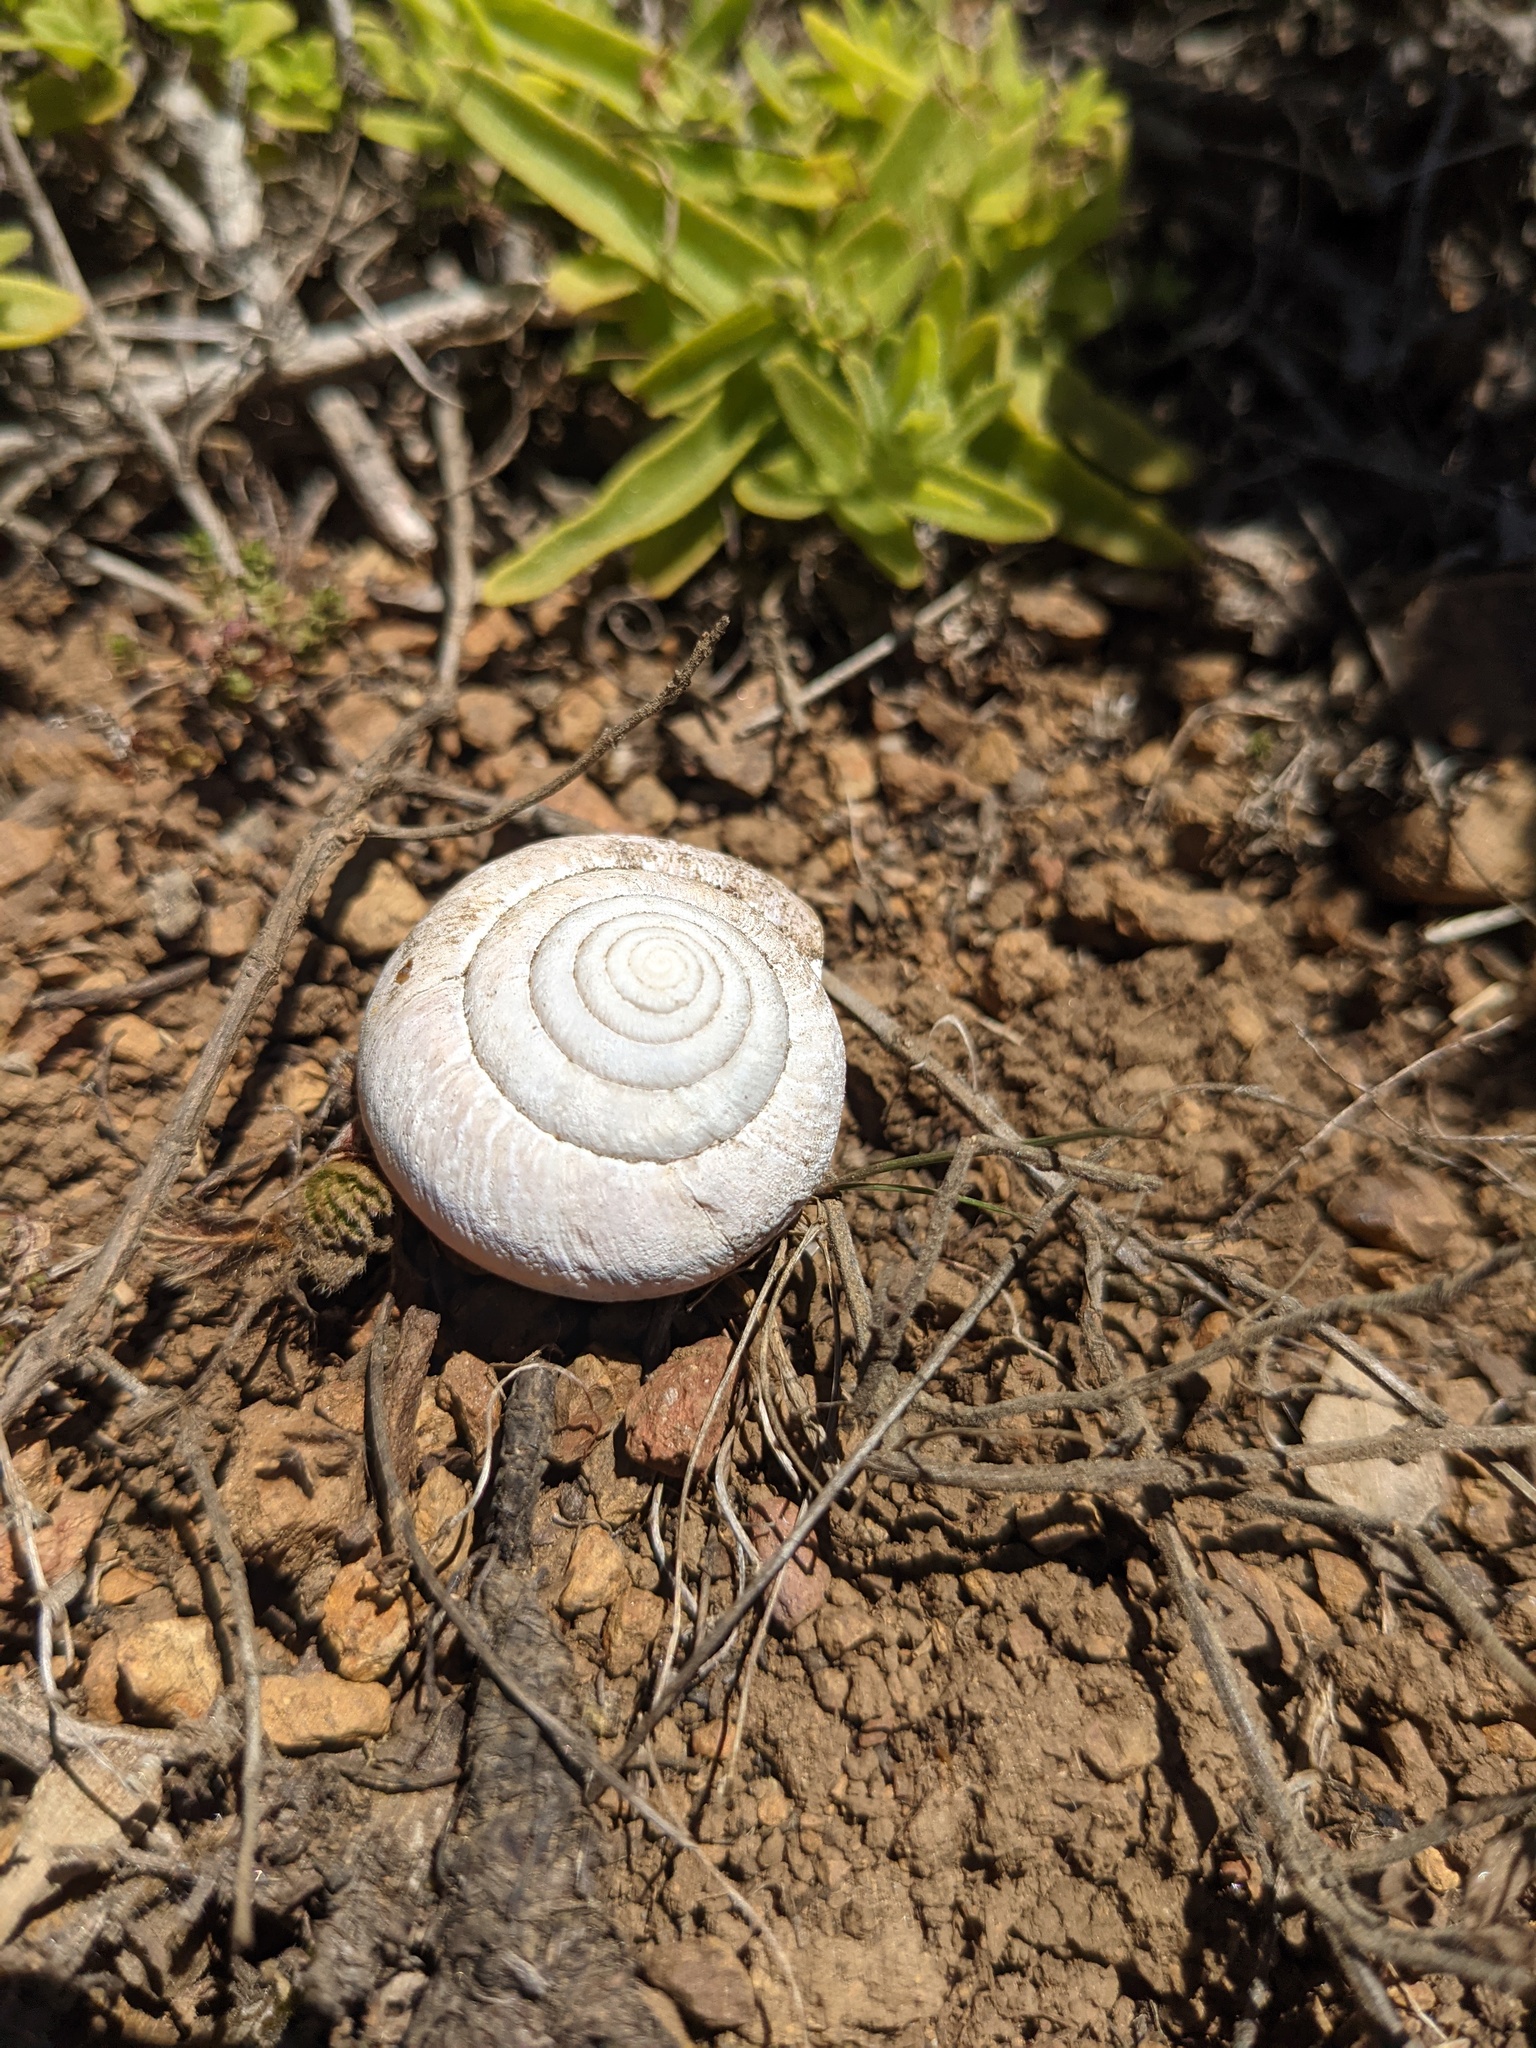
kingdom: Animalia
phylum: Mollusca
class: Gastropoda
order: Stylommatophora
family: Xanthonychidae
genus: Helminthoglypta
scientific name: Helminthoglypta arrosa
